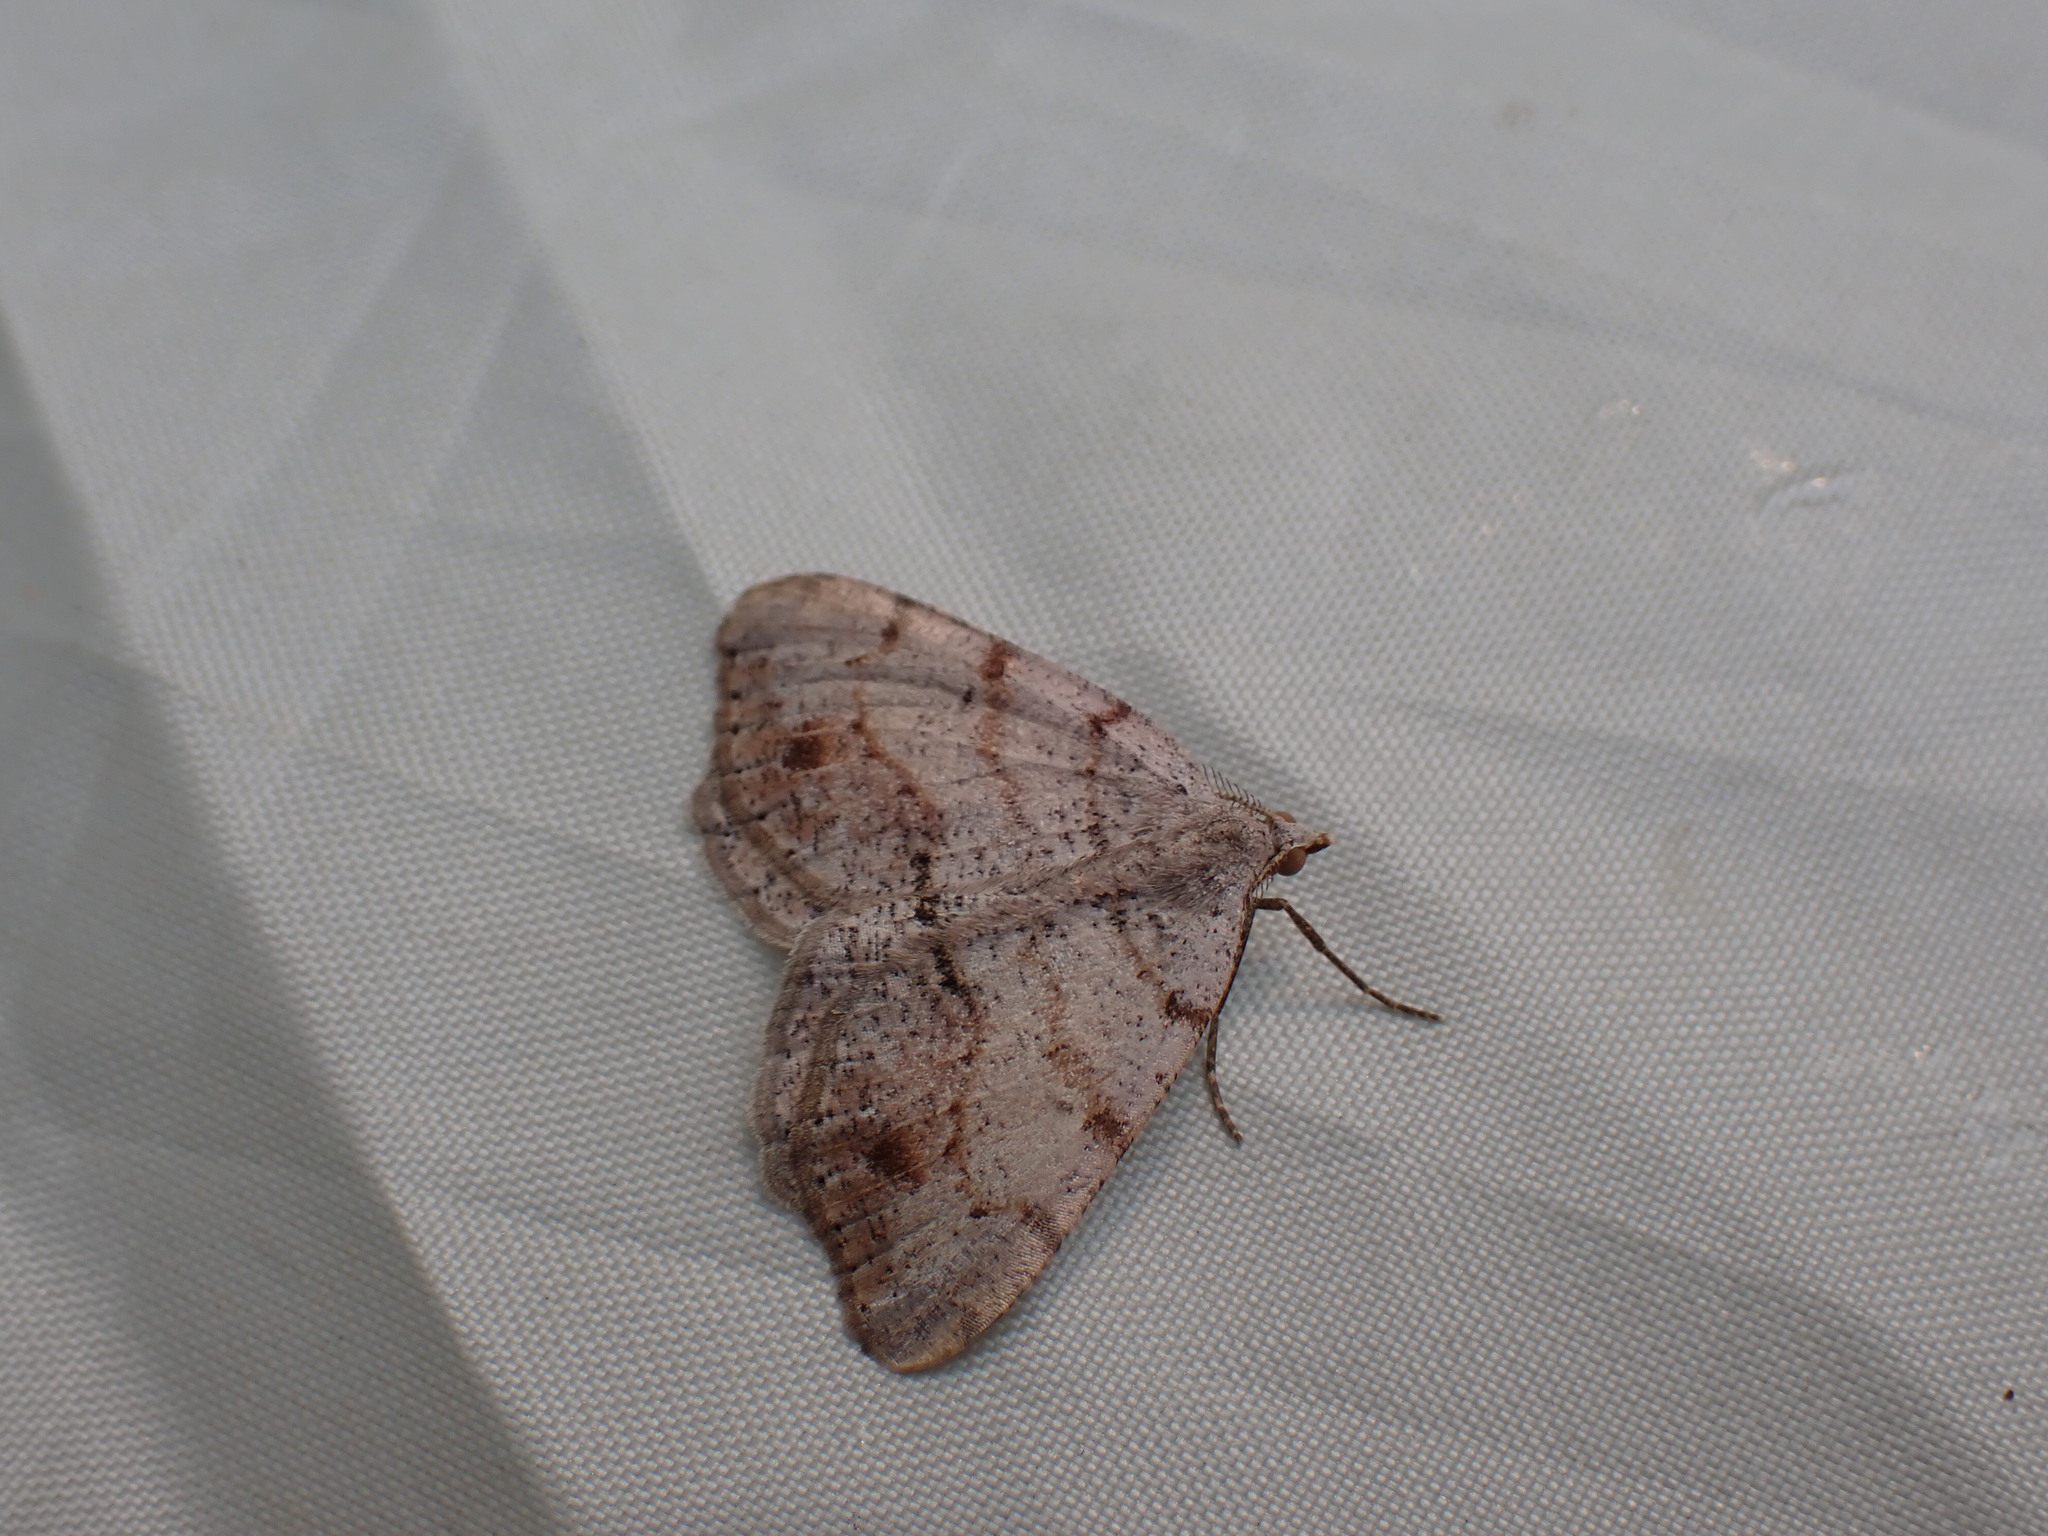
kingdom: Animalia
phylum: Arthropoda
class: Insecta
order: Lepidoptera
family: Geometridae
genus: Macaria
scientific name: Macaria exauspicata
